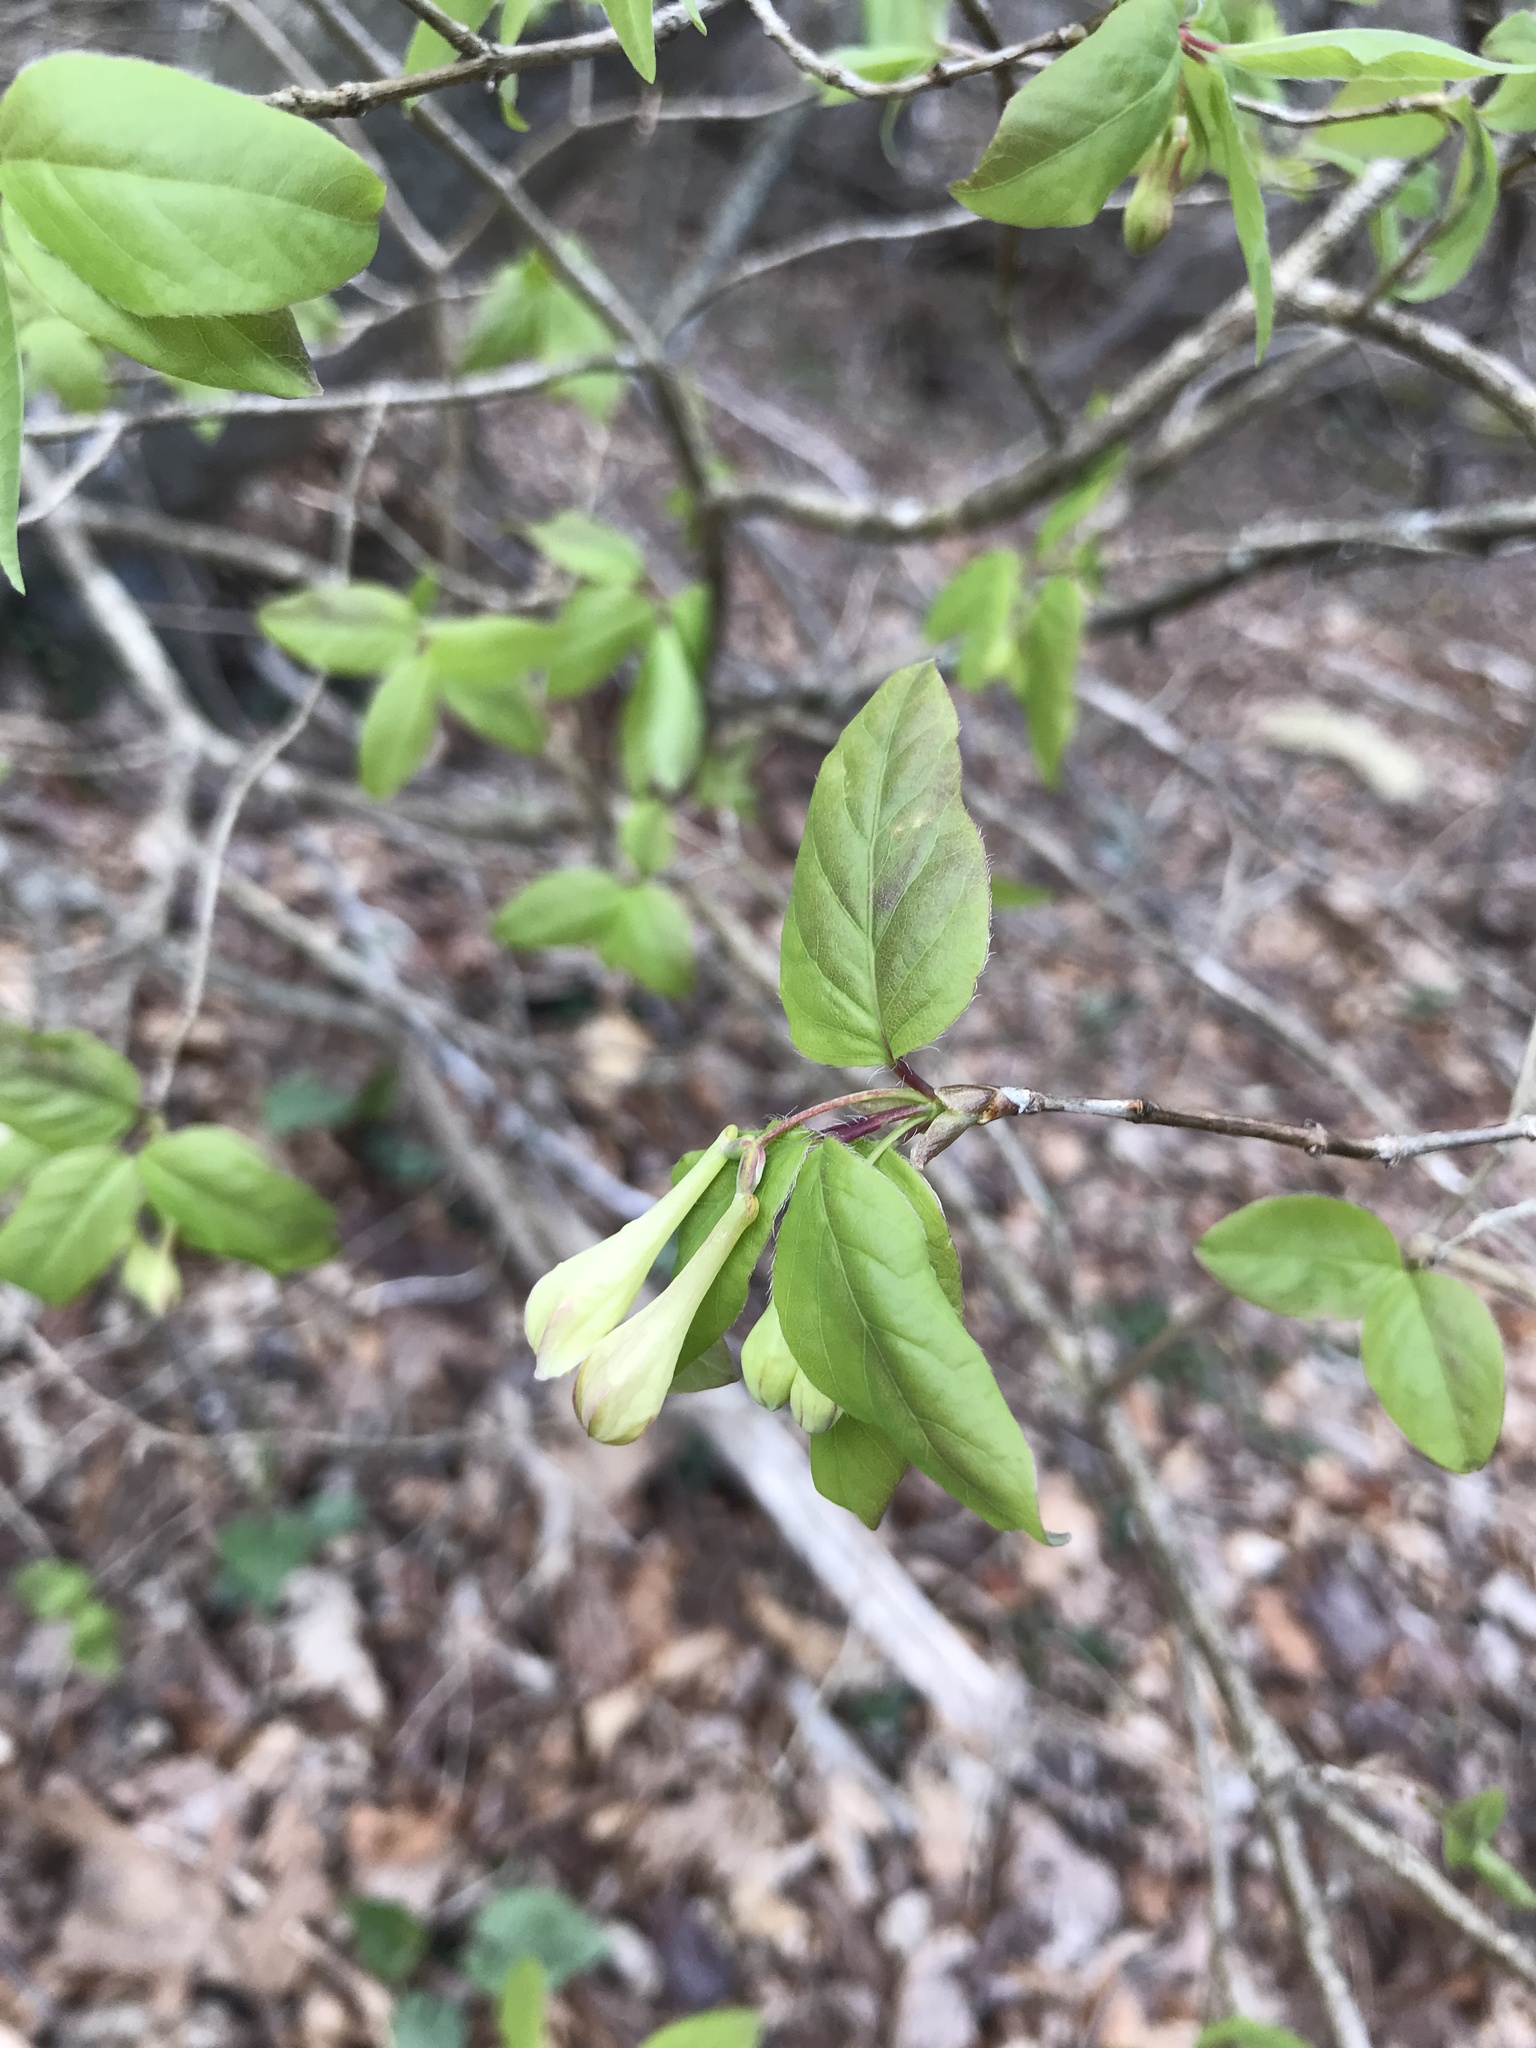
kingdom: Plantae
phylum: Tracheophyta
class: Magnoliopsida
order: Dipsacales
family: Caprifoliaceae
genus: Lonicera
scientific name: Lonicera canadensis
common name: American fly-honeysuckle
